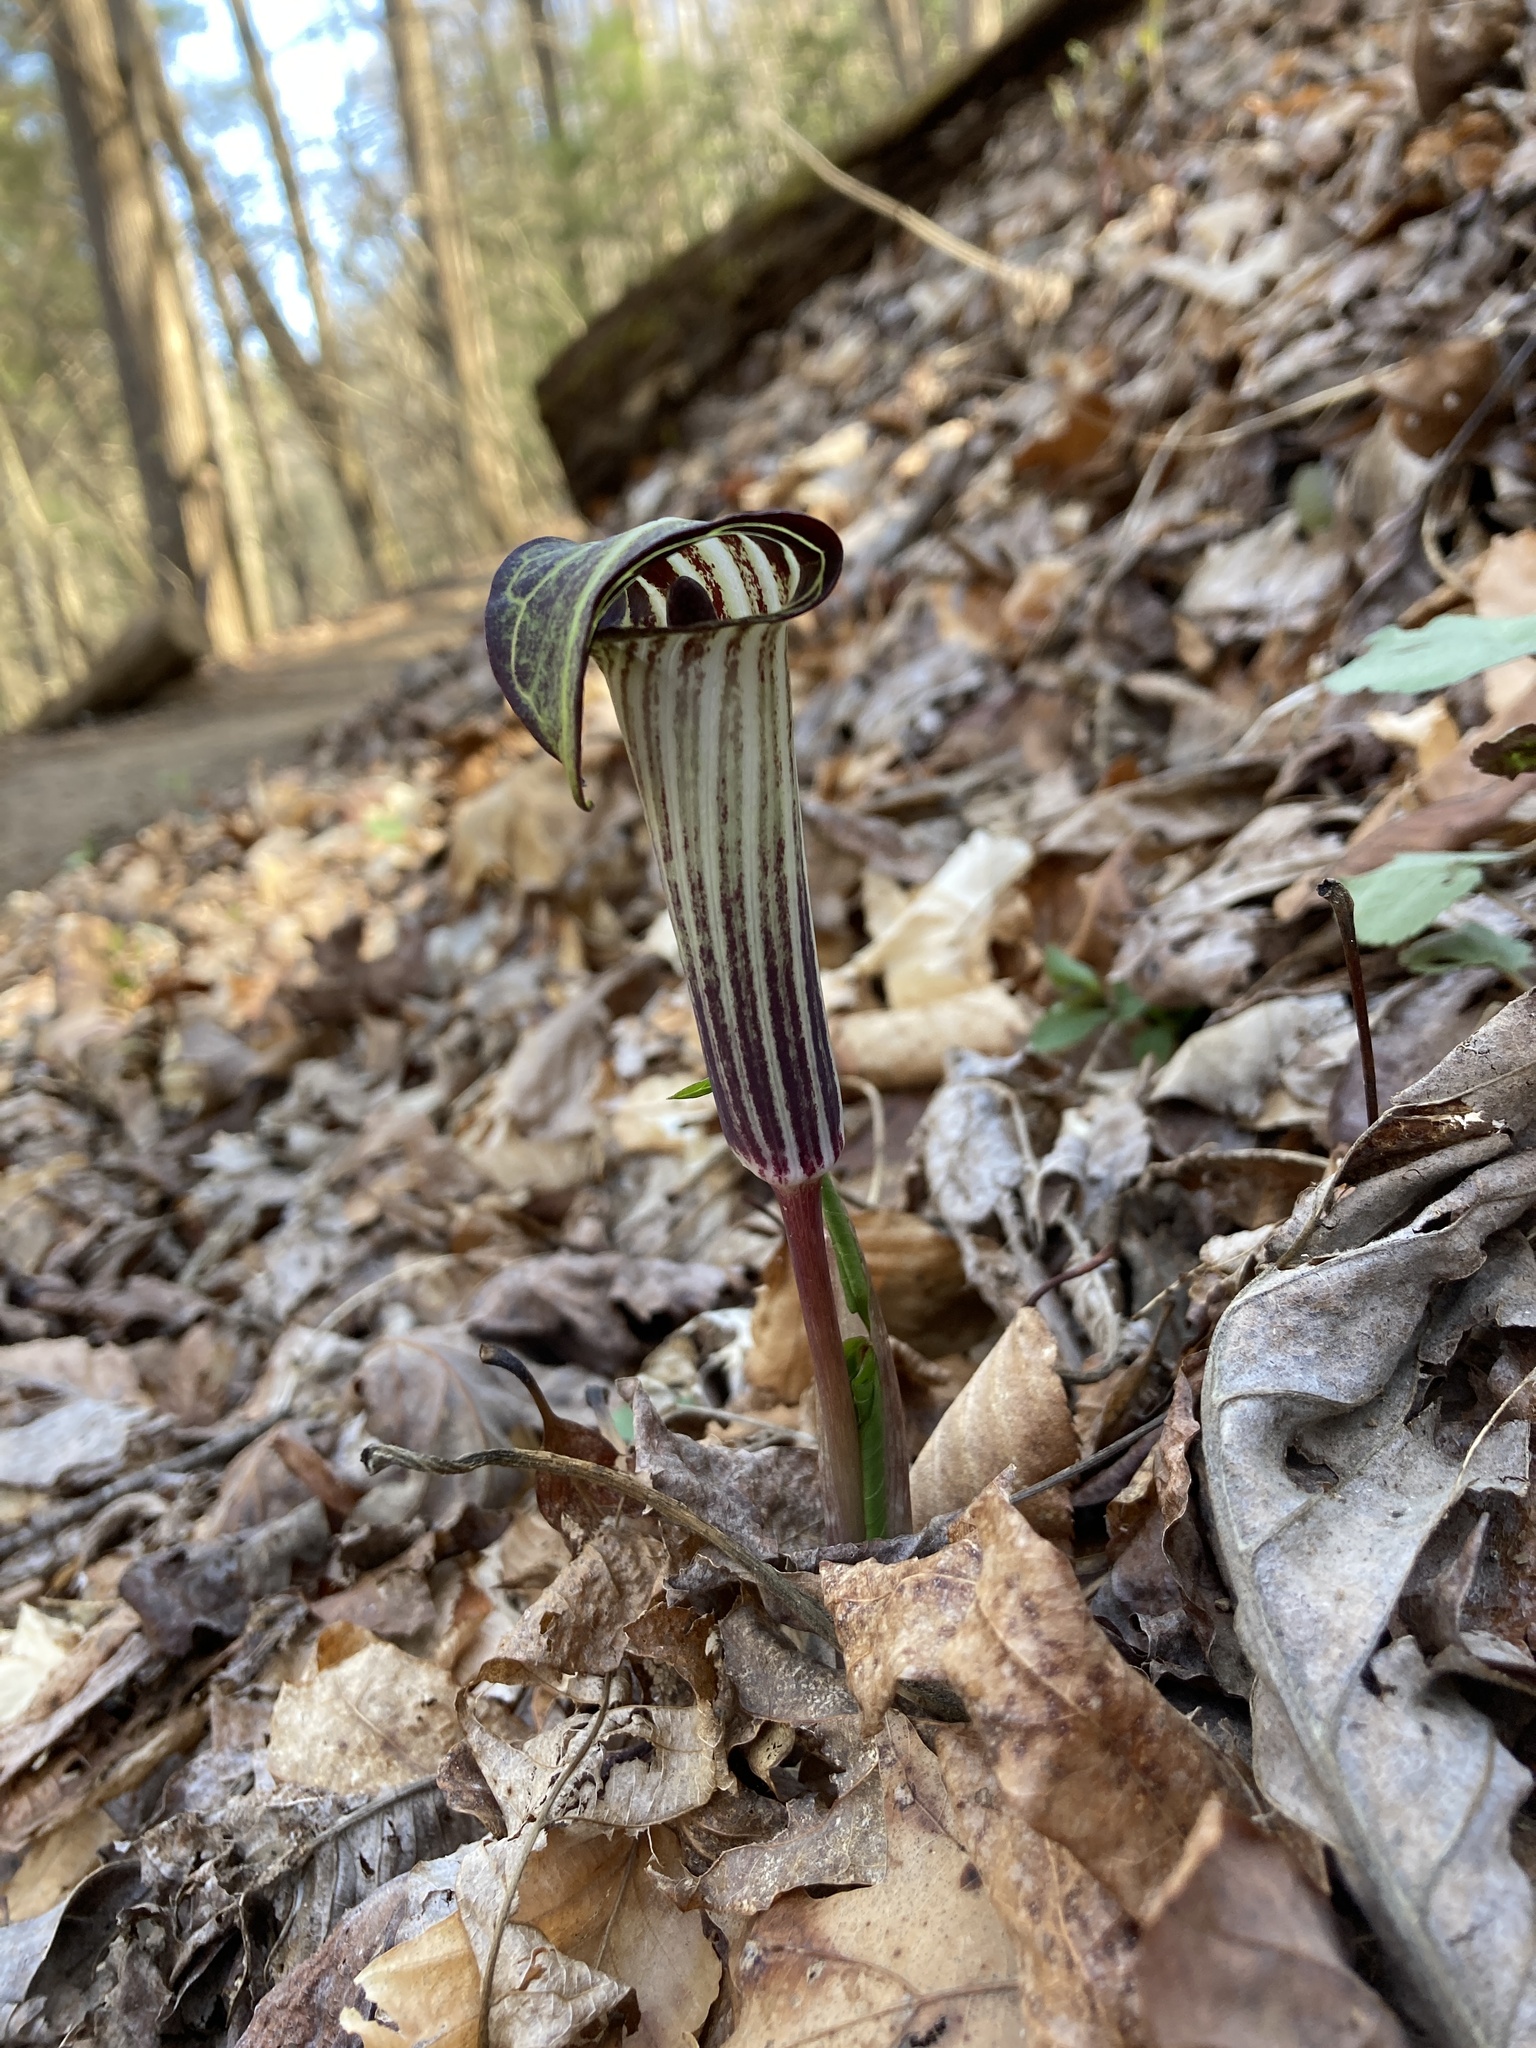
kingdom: Plantae
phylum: Tracheophyta
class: Liliopsida
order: Alismatales
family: Araceae
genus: Arisaema
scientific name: Arisaema triphyllum
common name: Jack-in-the-pulpit
